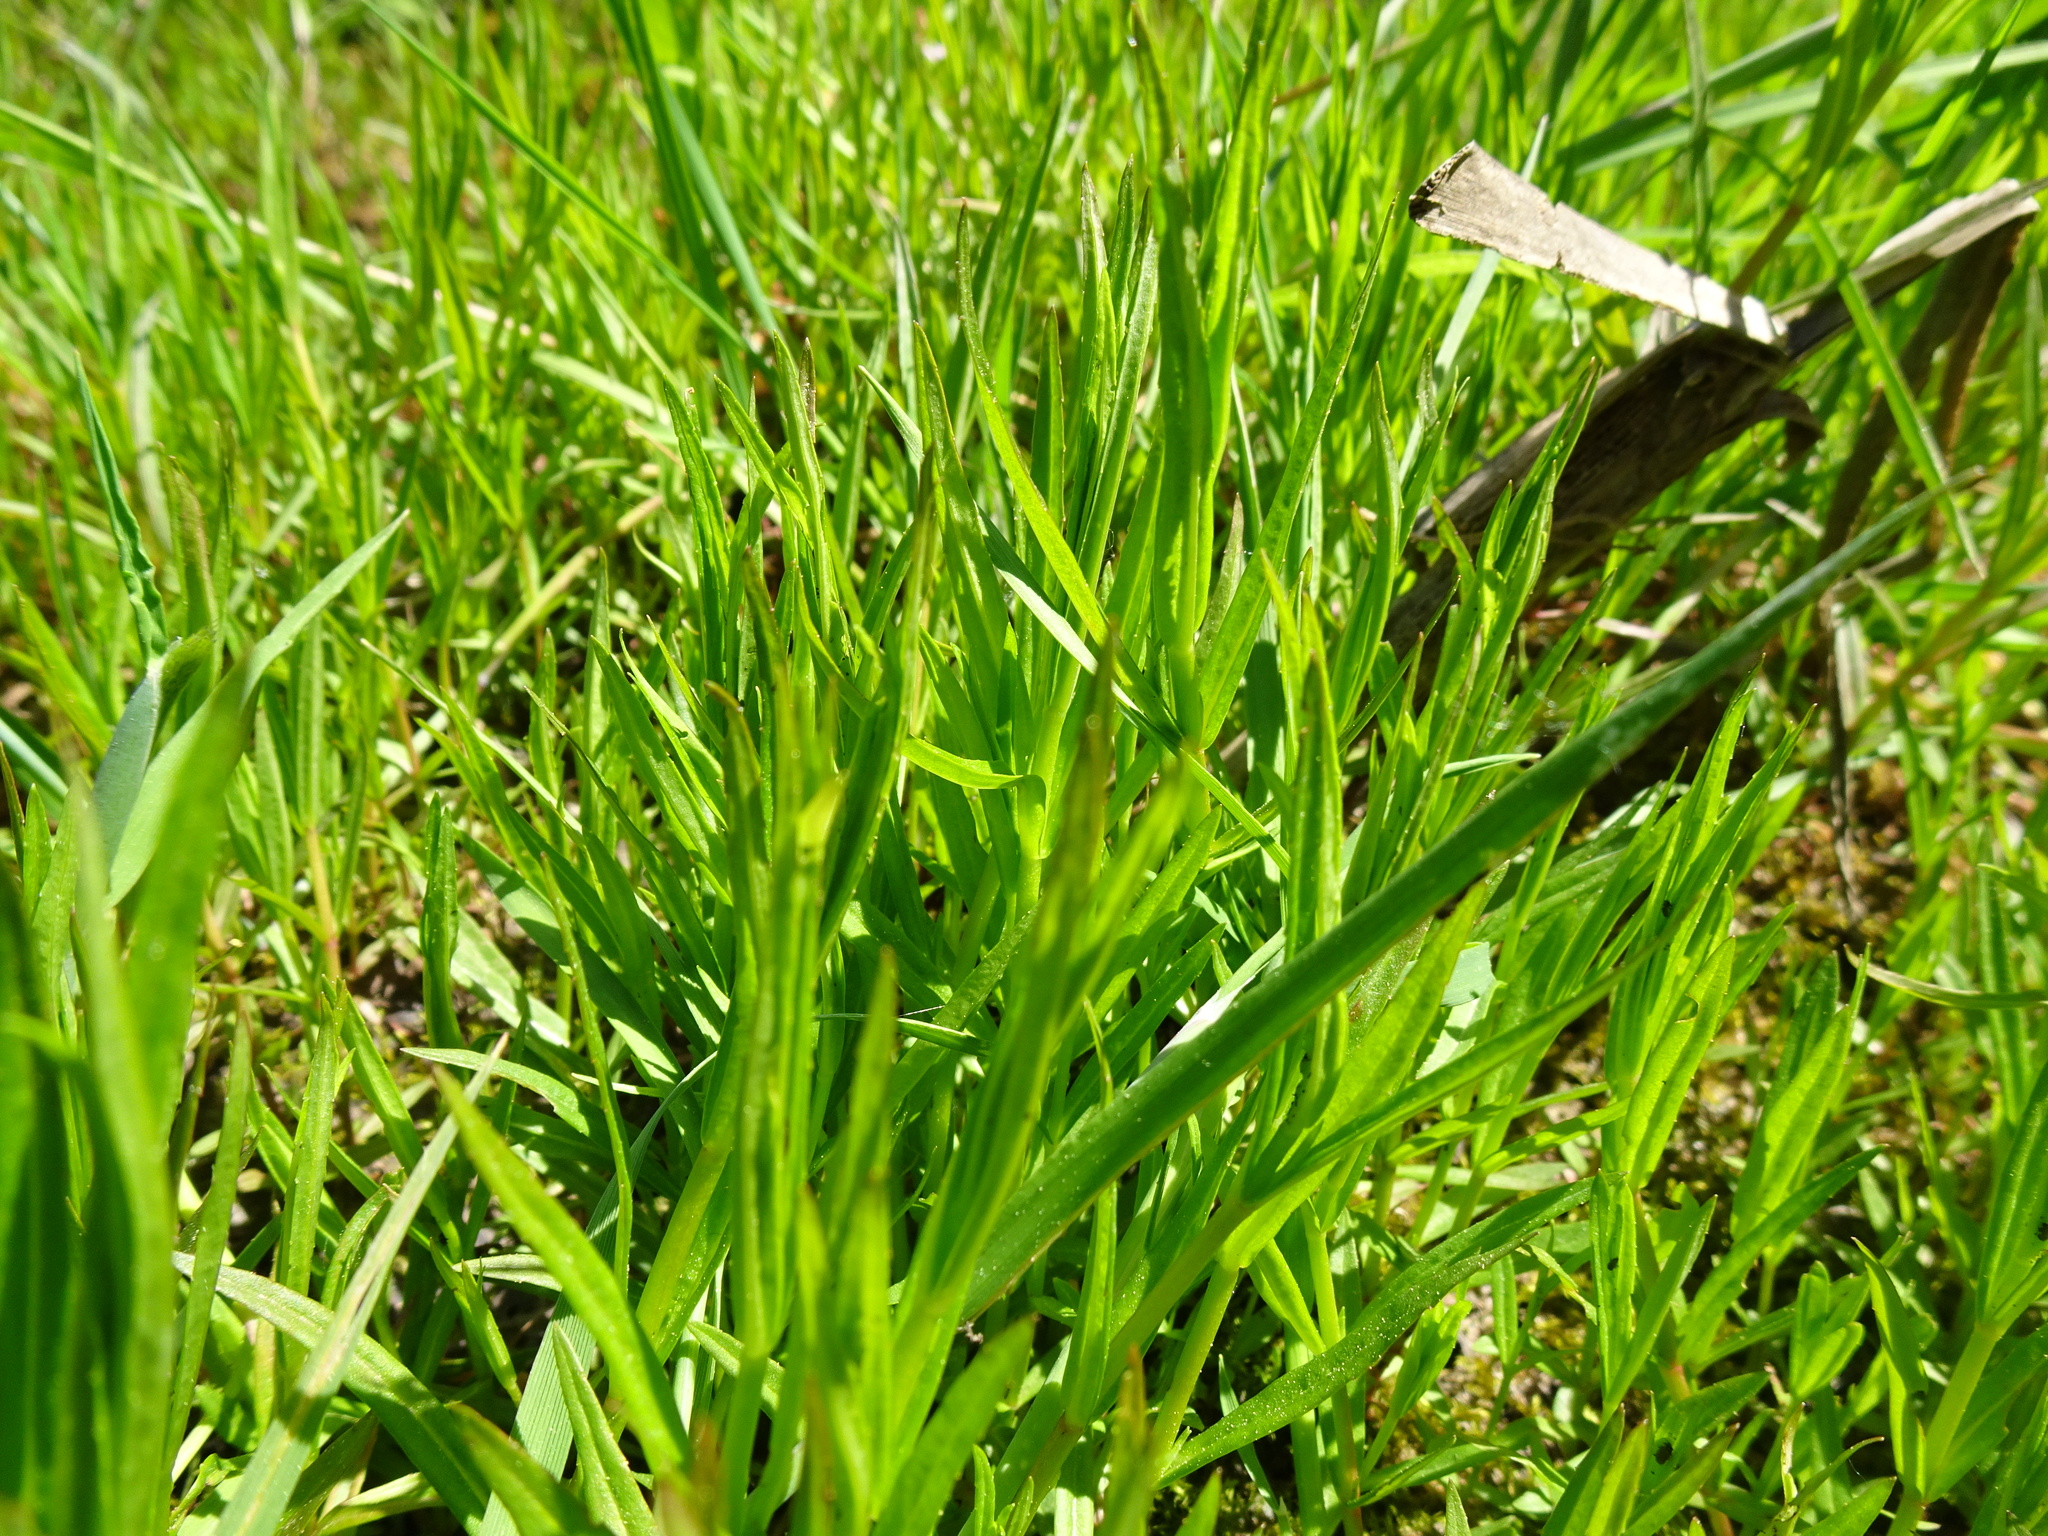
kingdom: Plantae
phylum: Tracheophyta
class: Magnoliopsida
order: Lamiales
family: Plantaginaceae
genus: Veronica
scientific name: Veronica scutellata
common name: Marsh speedwell
